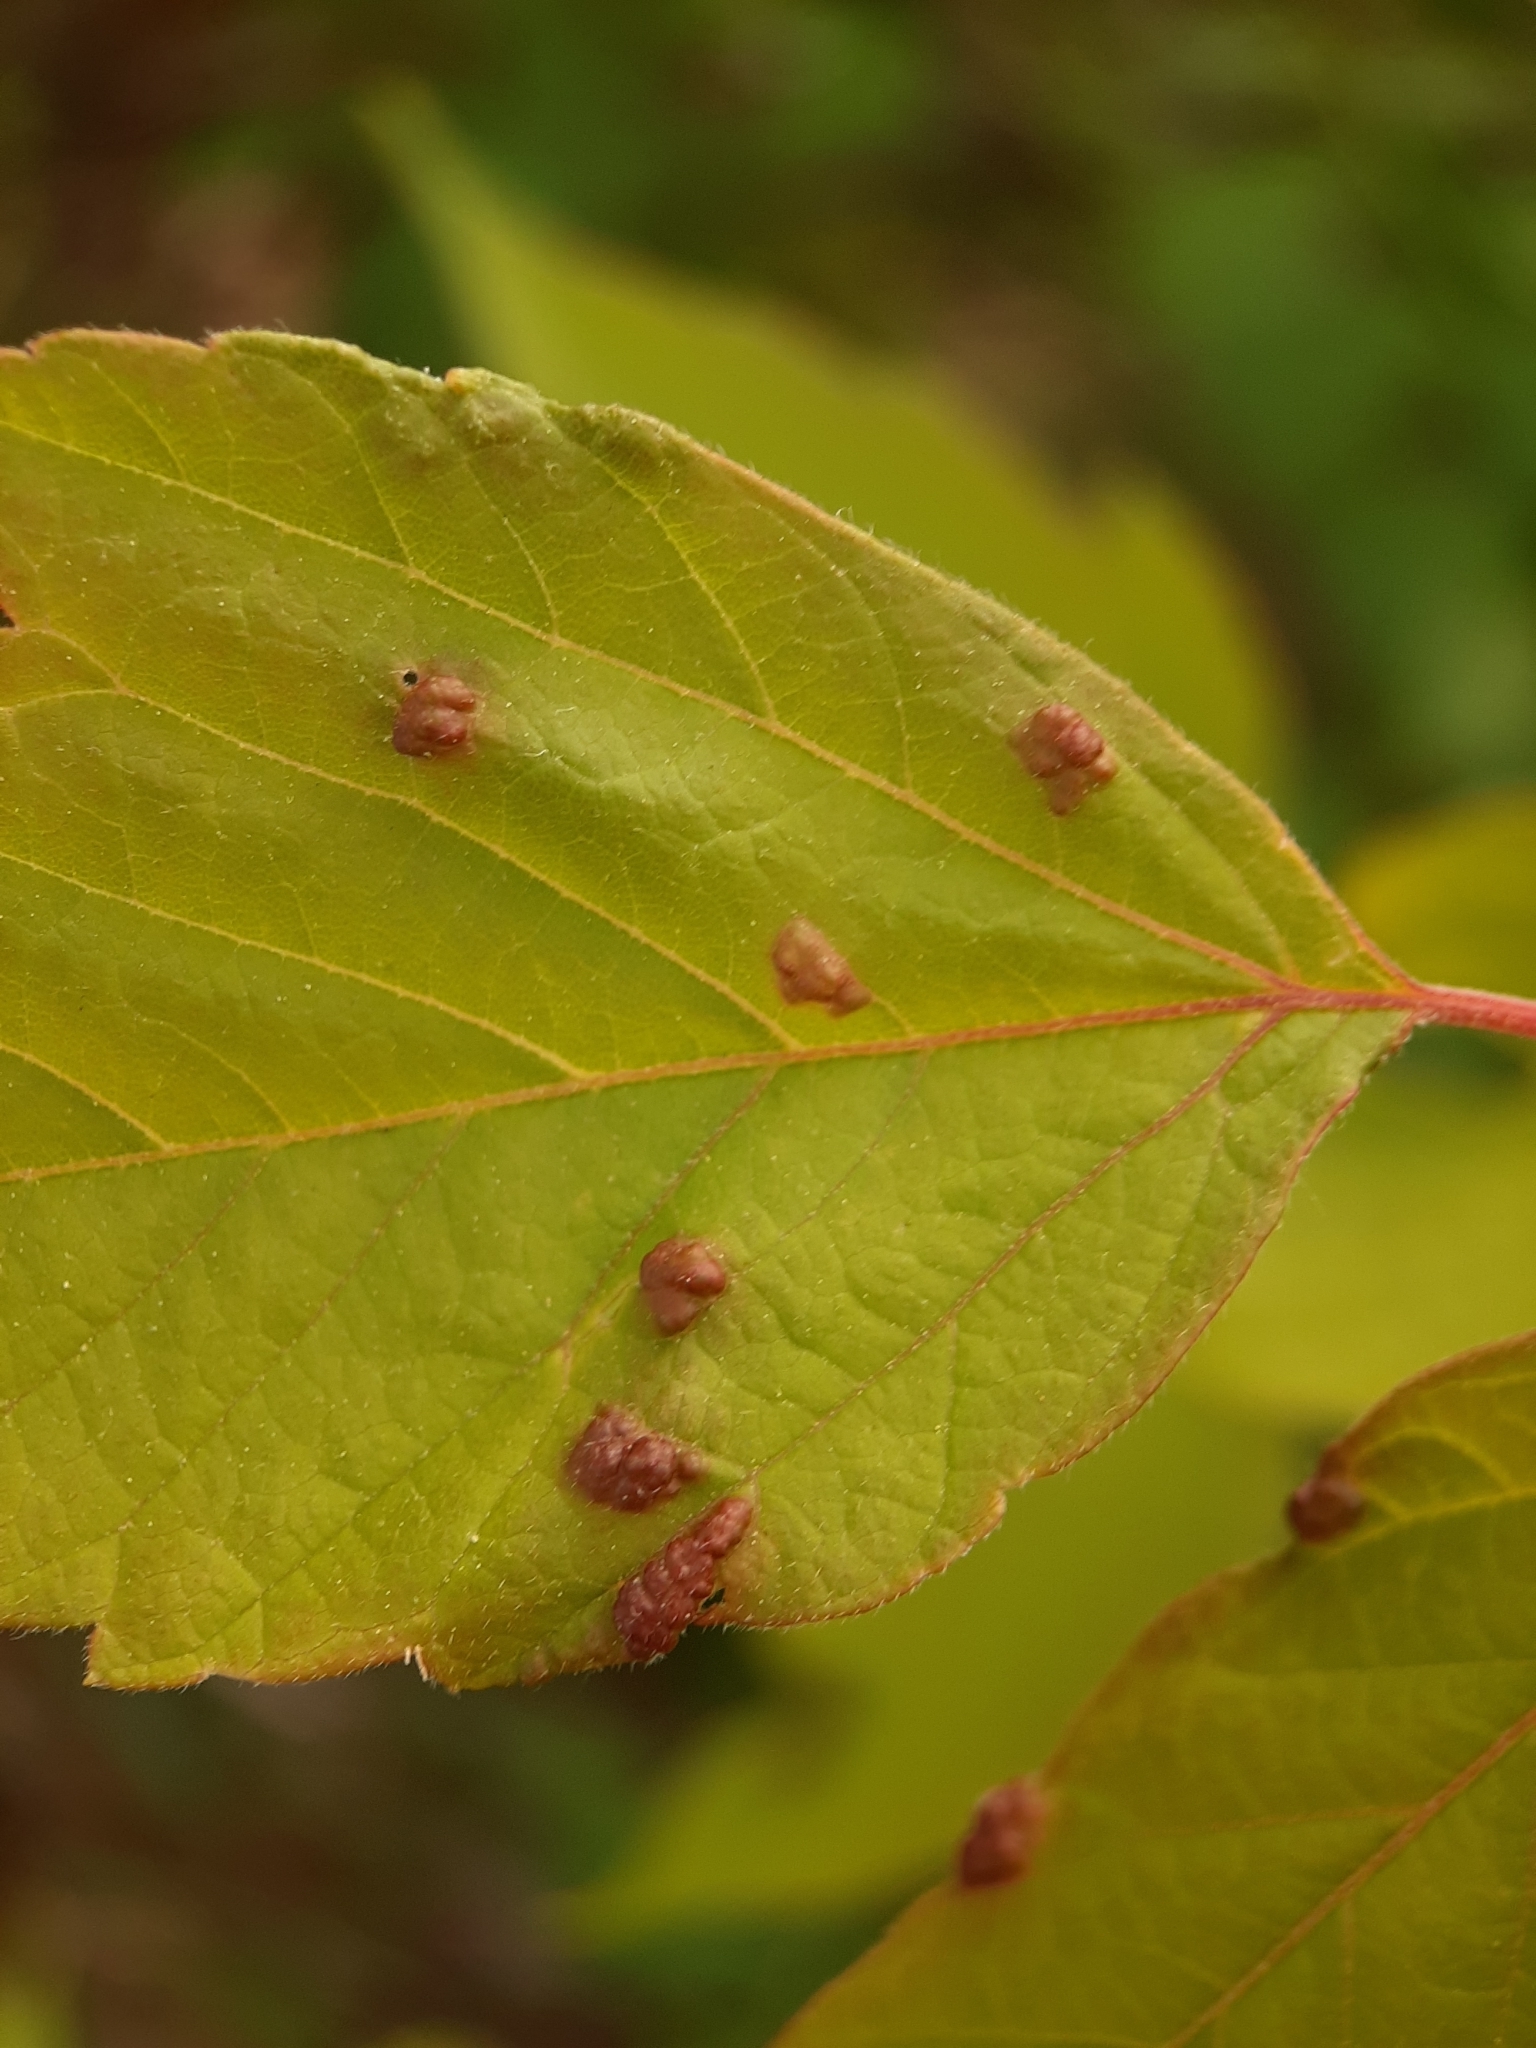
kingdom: Animalia
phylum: Arthropoda
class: Arachnida
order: Trombidiformes
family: Eriophyidae
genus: Aceria
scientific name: Aceria
